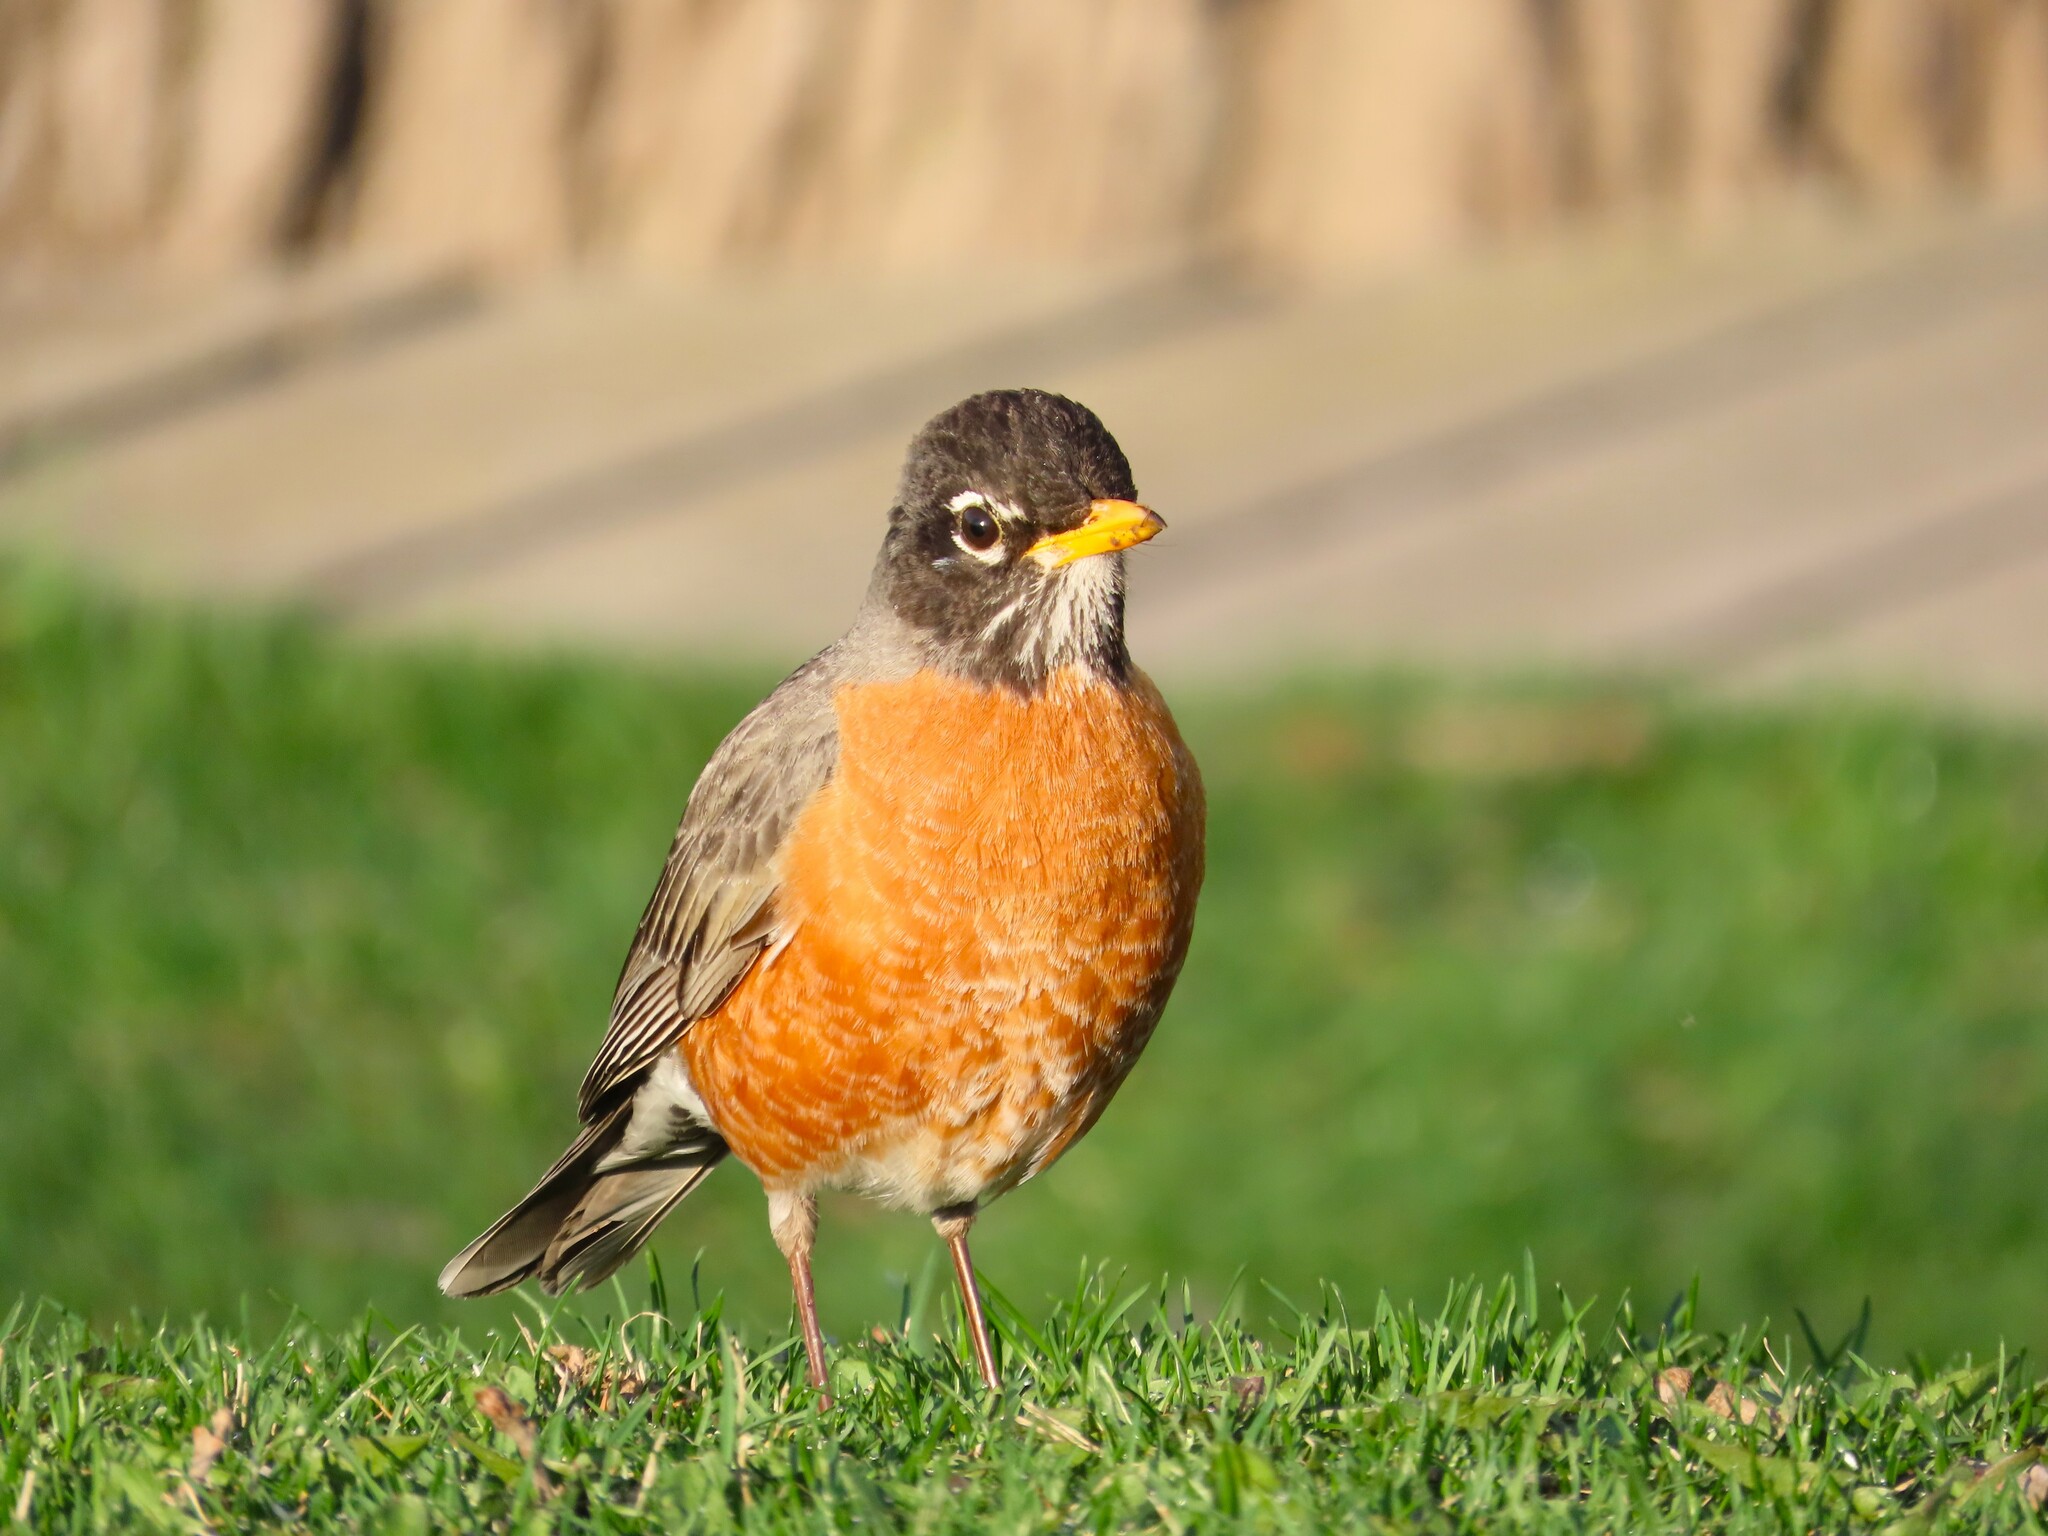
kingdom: Animalia
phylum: Chordata
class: Aves
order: Passeriformes
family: Turdidae
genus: Turdus
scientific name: Turdus migratorius
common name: American robin
